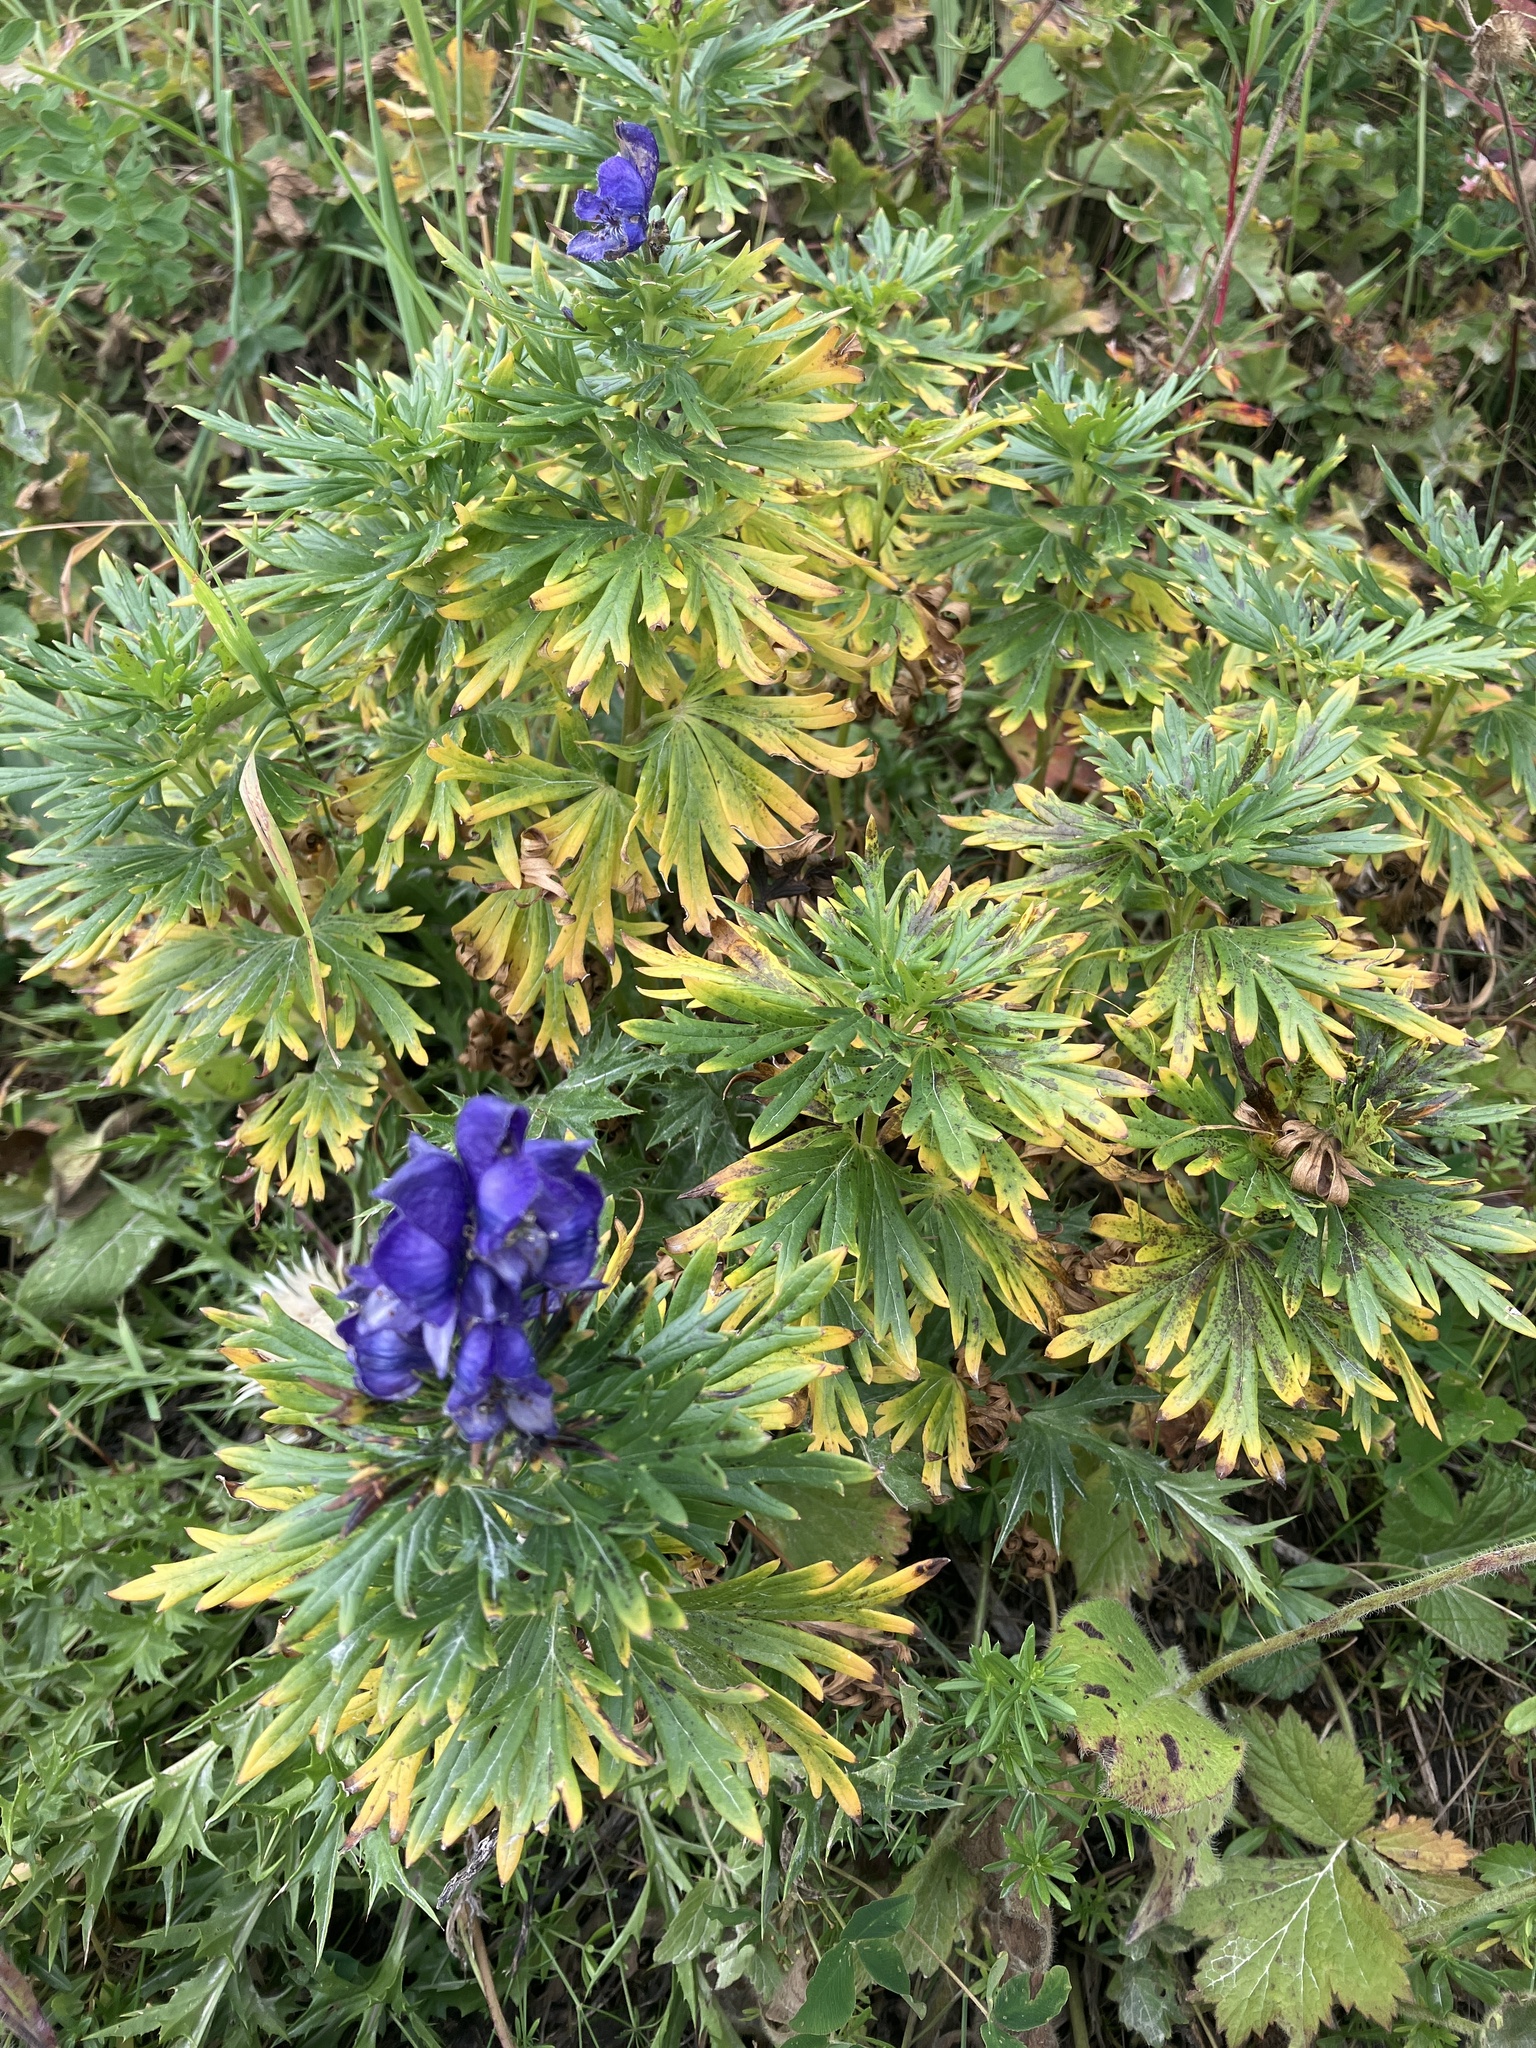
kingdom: Plantae
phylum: Tracheophyta
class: Magnoliopsida
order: Ranunculales
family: Ranunculaceae
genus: Aconitum
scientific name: Aconitum napellus
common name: Garden monkshood
